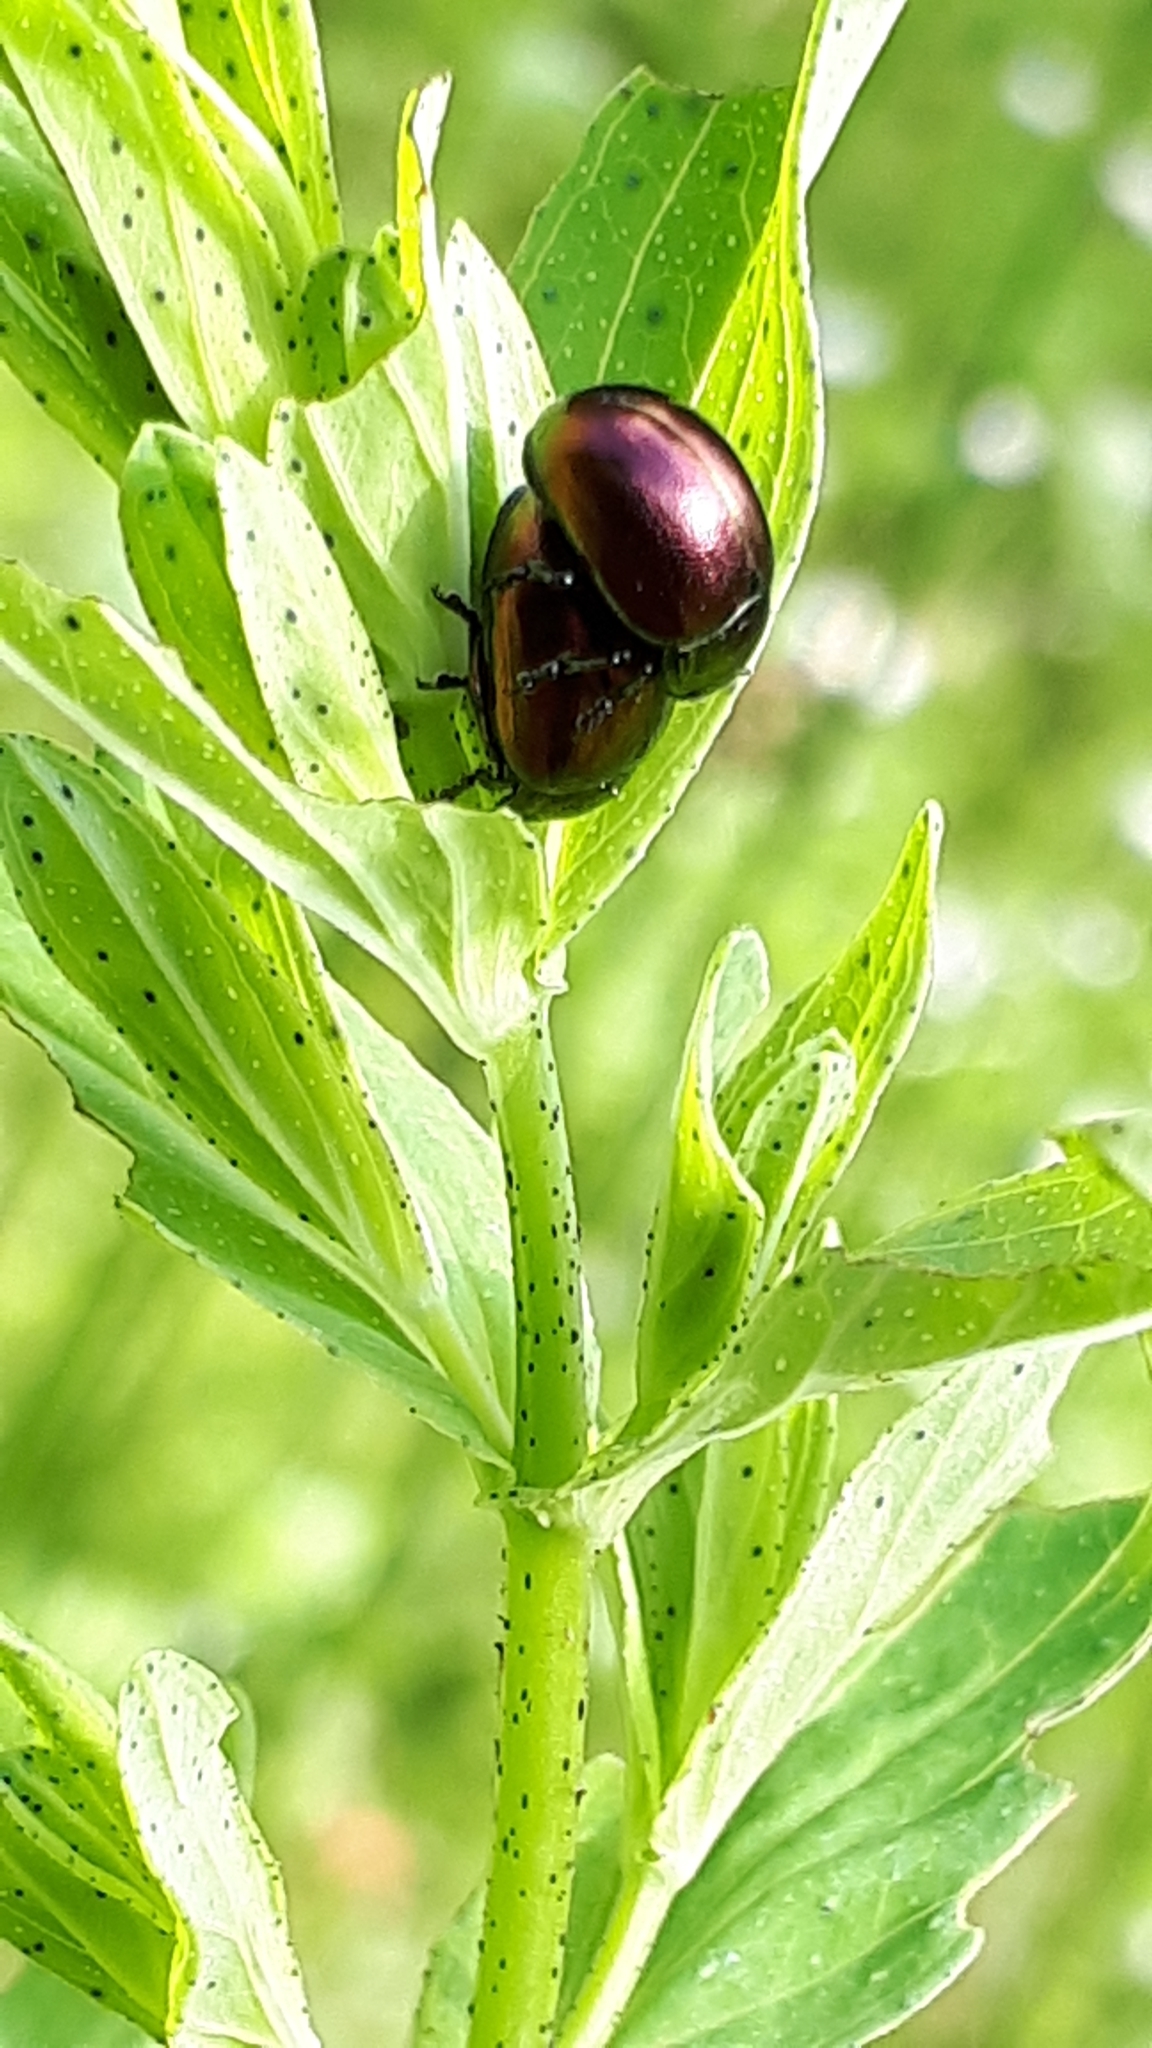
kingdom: Animalia
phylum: Arthropoda
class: Insecta
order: Coleoptera
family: Chrysomelidae
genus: Chrysolina
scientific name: Chrysolina varians
